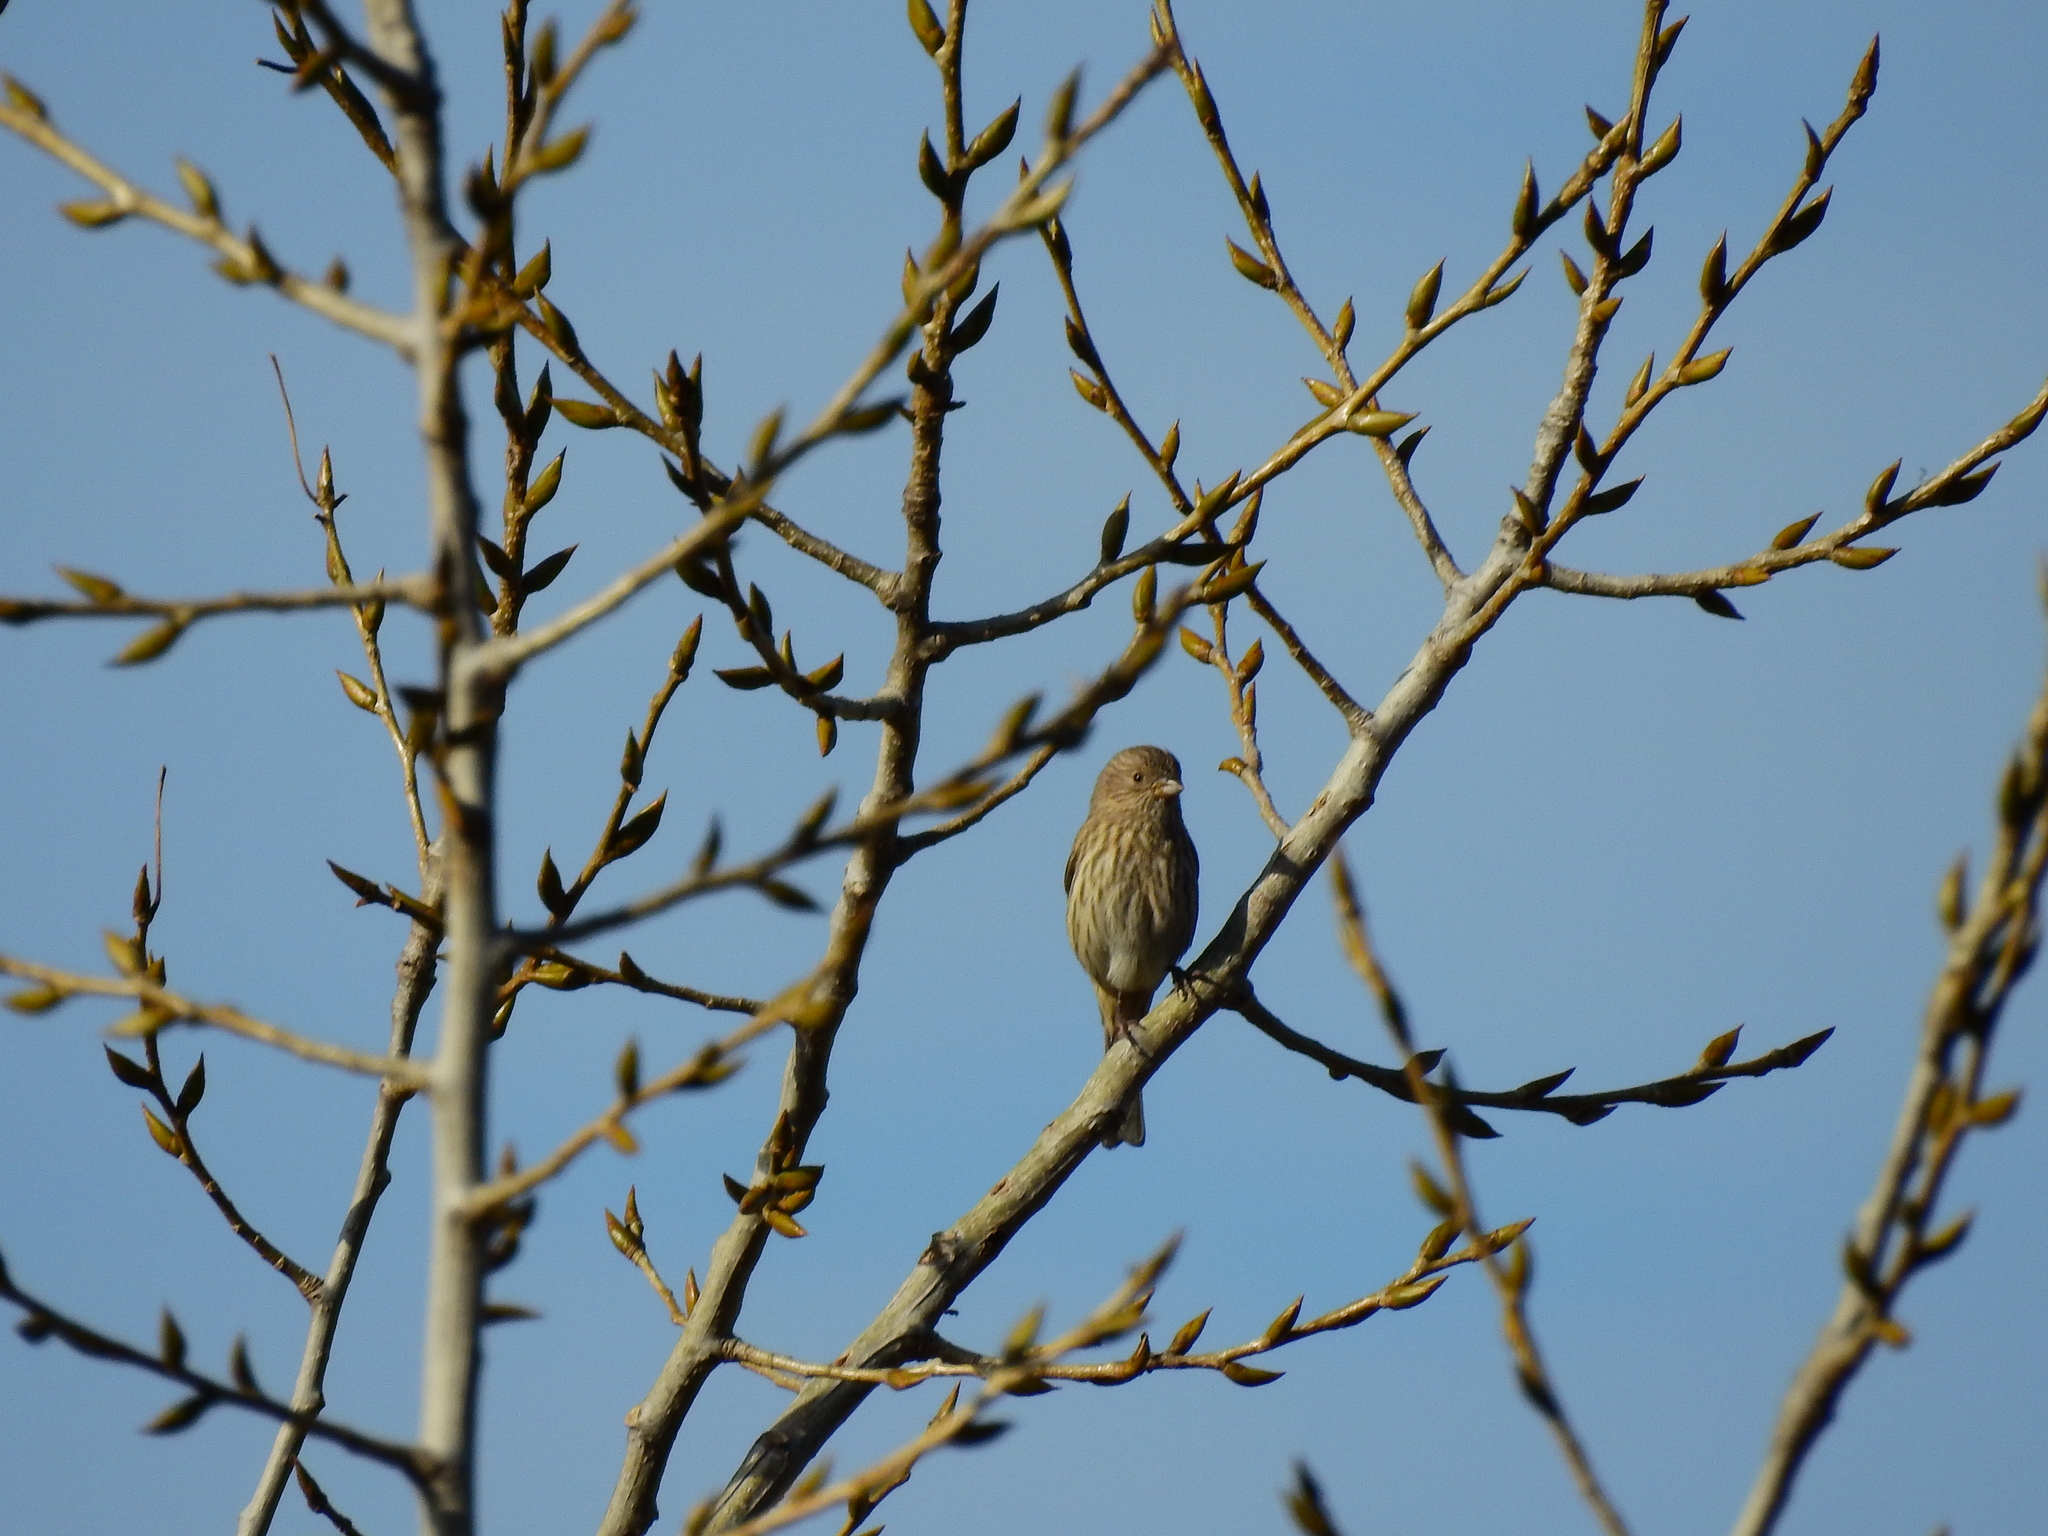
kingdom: Animalia
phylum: Chordata
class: Aves
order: Passeriformes
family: Fringillidae
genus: Haemorhous
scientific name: Haemorhous mexicanus
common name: House finch
